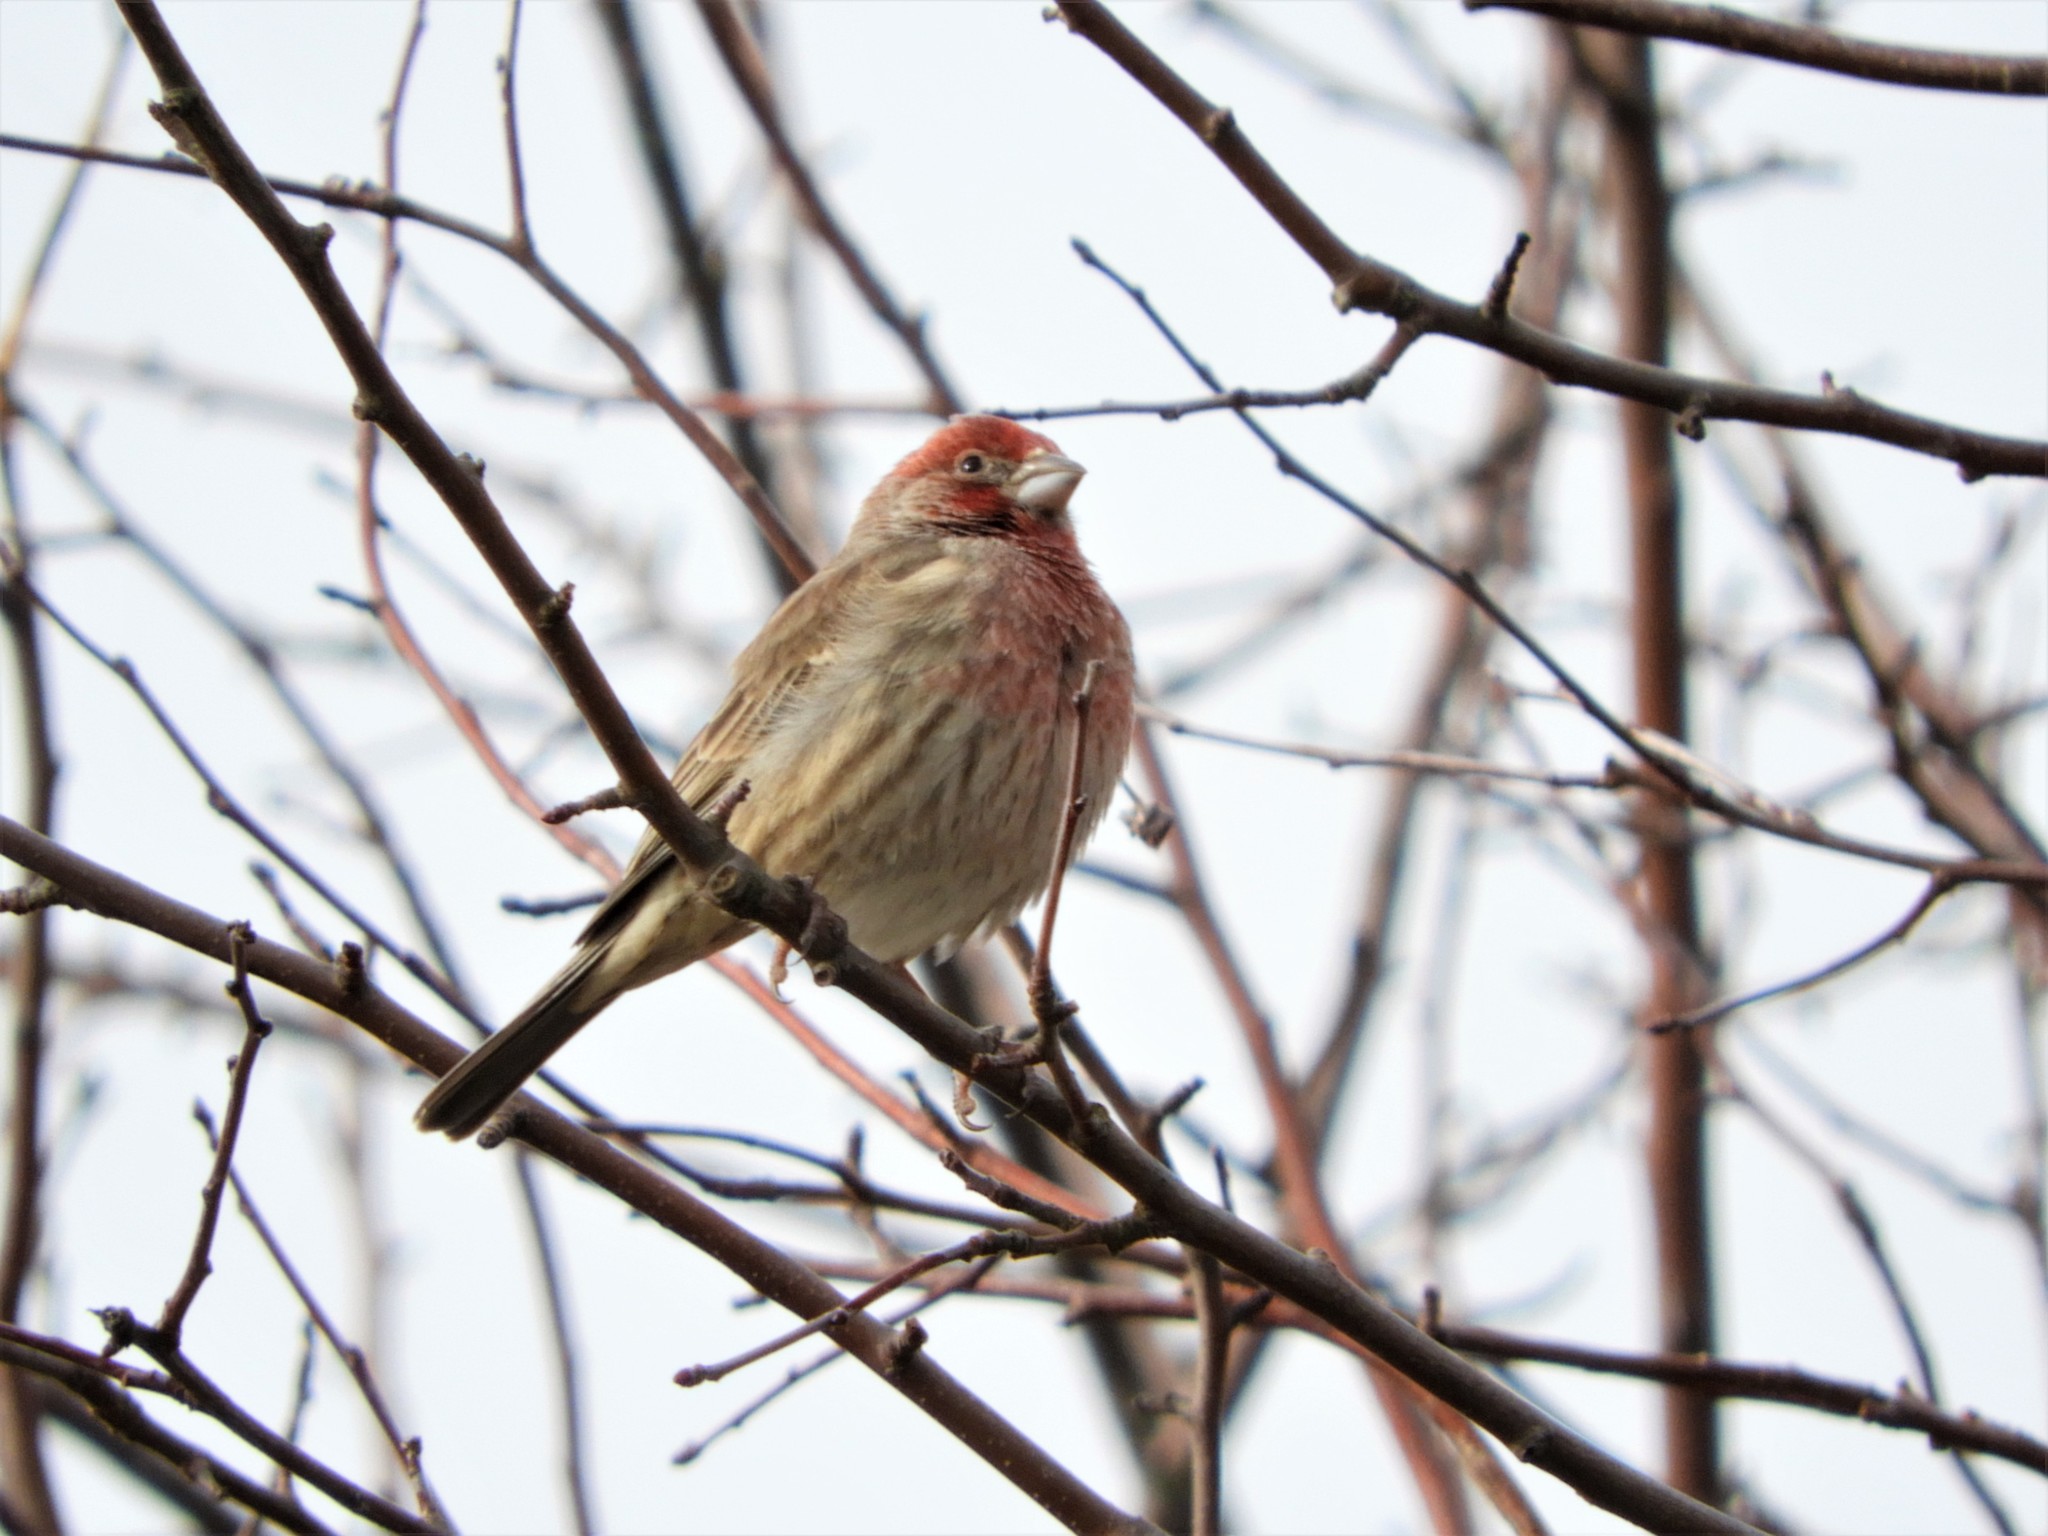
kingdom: Animalia
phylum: Chordata
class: Aves
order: Passeriformes
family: Fringillidae
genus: Haemorhous
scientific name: Haemorhous mexicanus
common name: House finch
